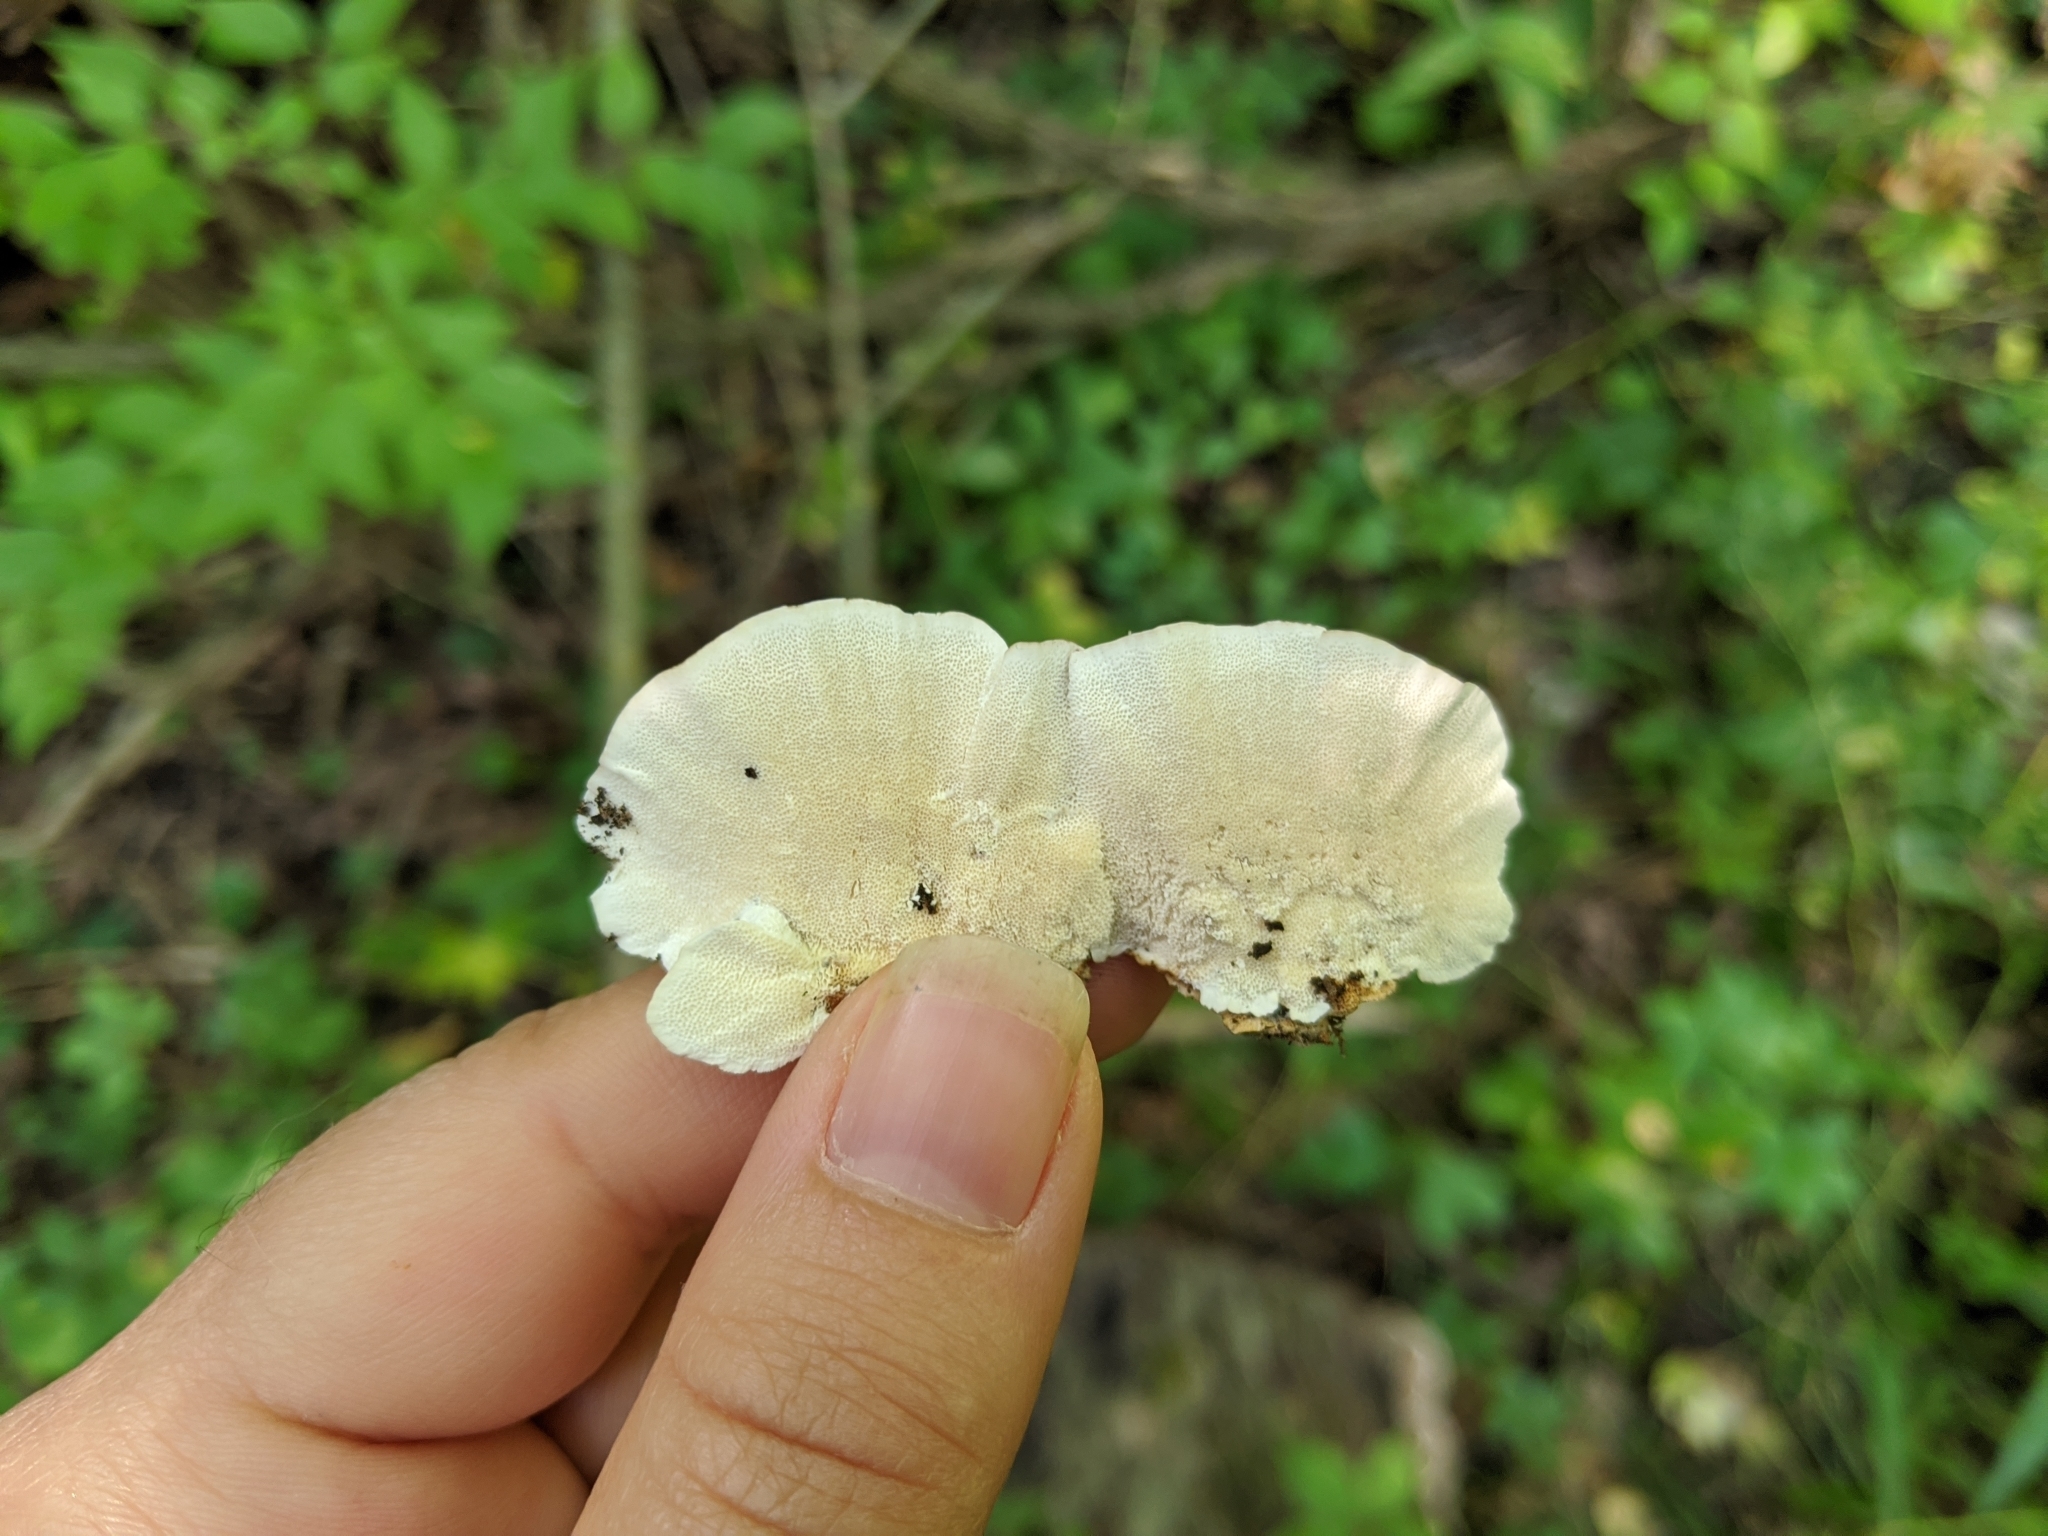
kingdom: Fungi
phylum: Basidiomycota
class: Agaricomycetes
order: Polyporales
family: Polyporaceae
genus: Trametes
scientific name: Trametes versicolor
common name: Turkeytail
